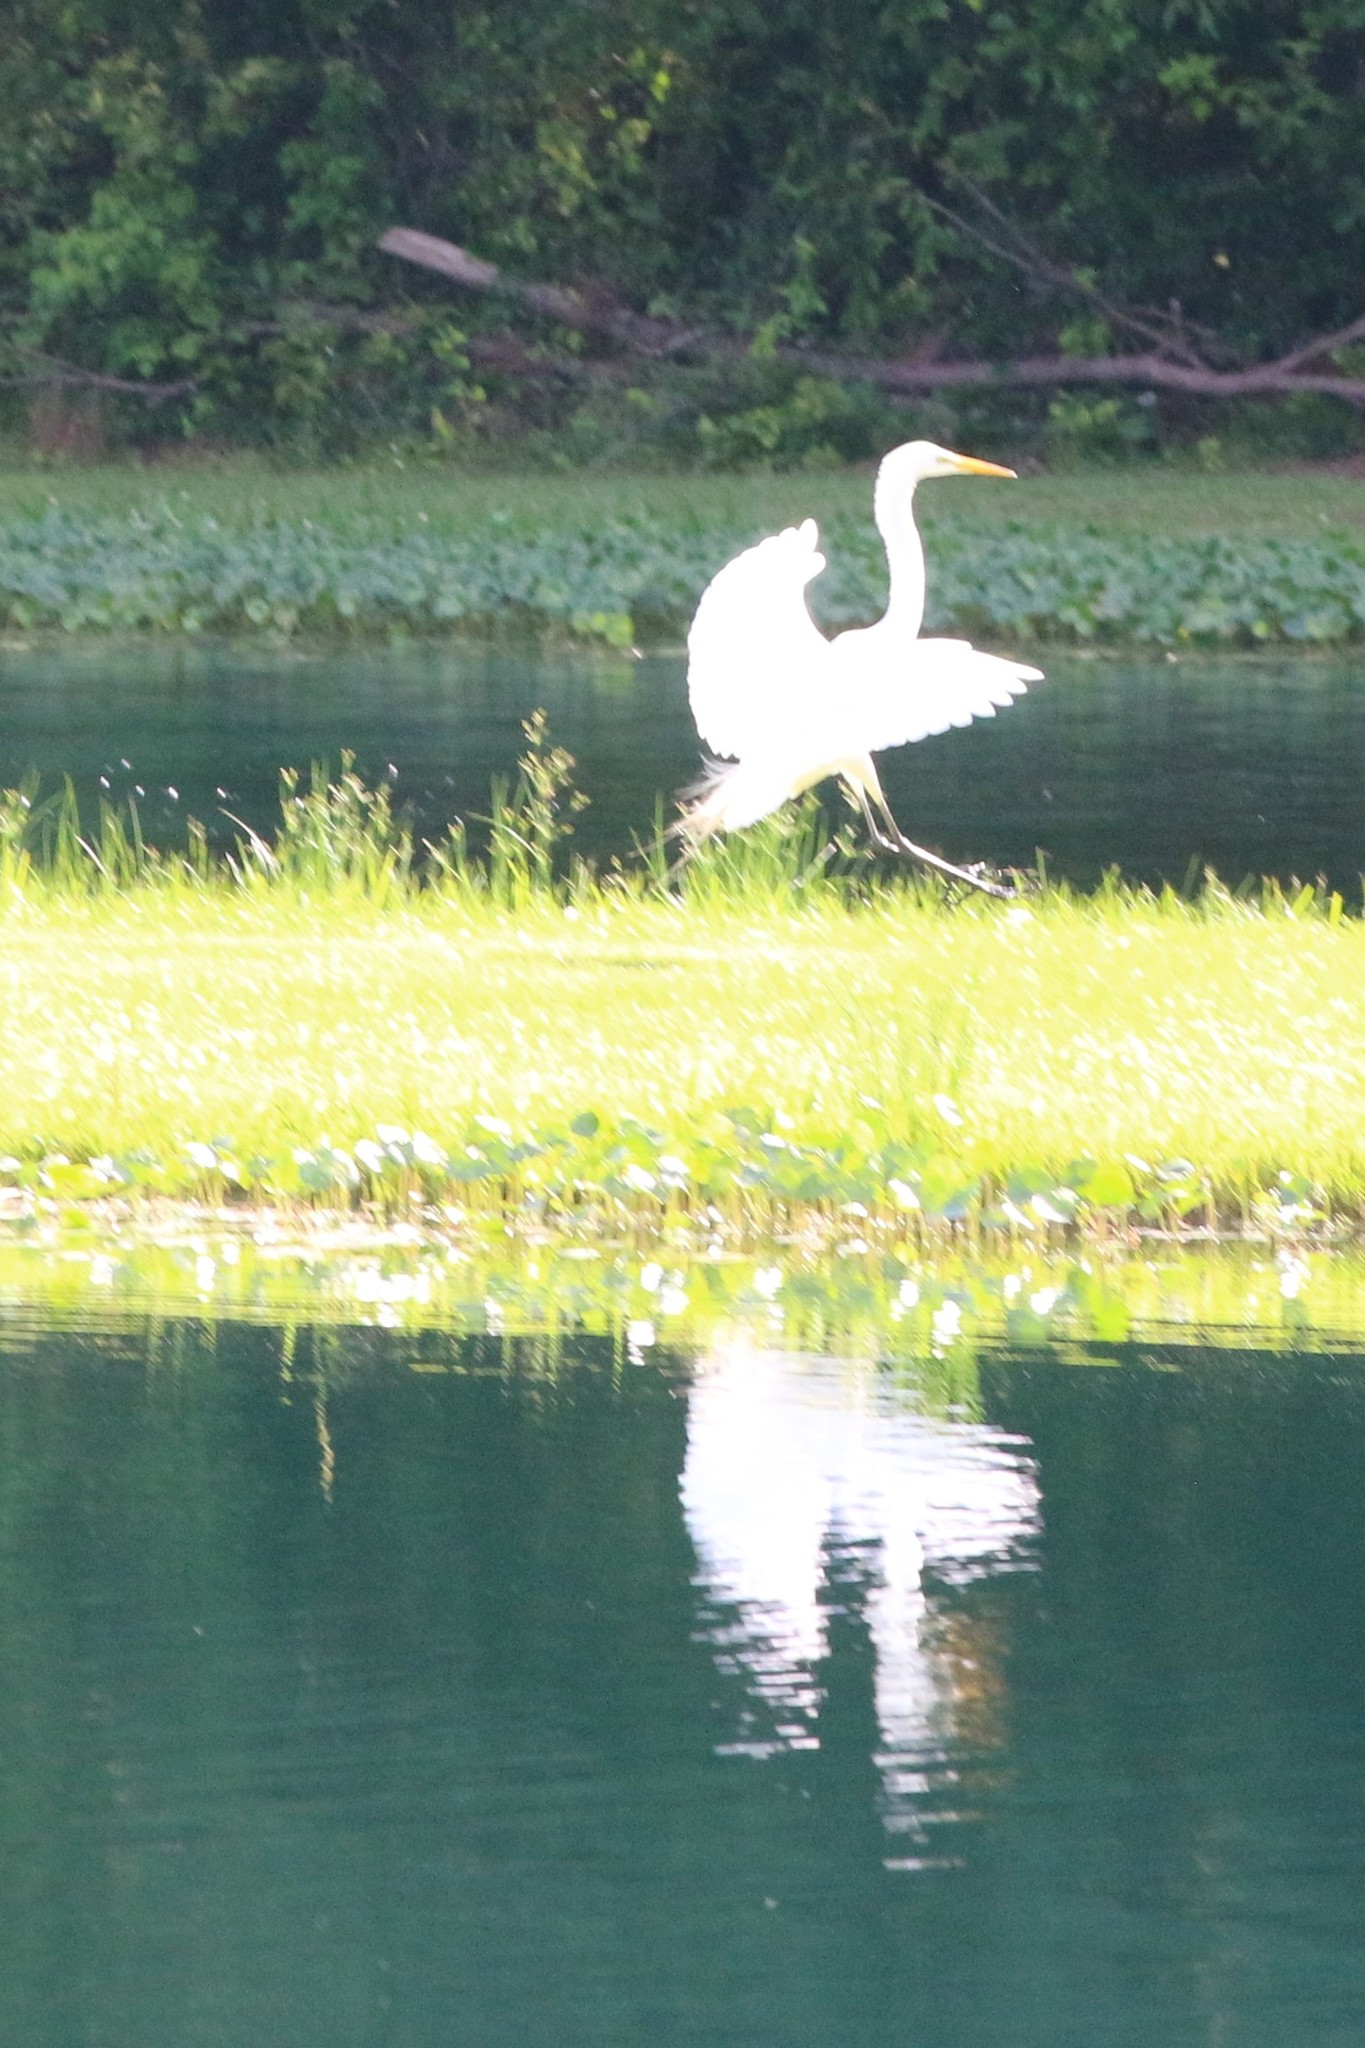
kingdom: Animalia
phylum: Chordata
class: Aves
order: Pelecaniformes
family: Ardeidae
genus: Ardea
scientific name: Ardea alba
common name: Great egret
